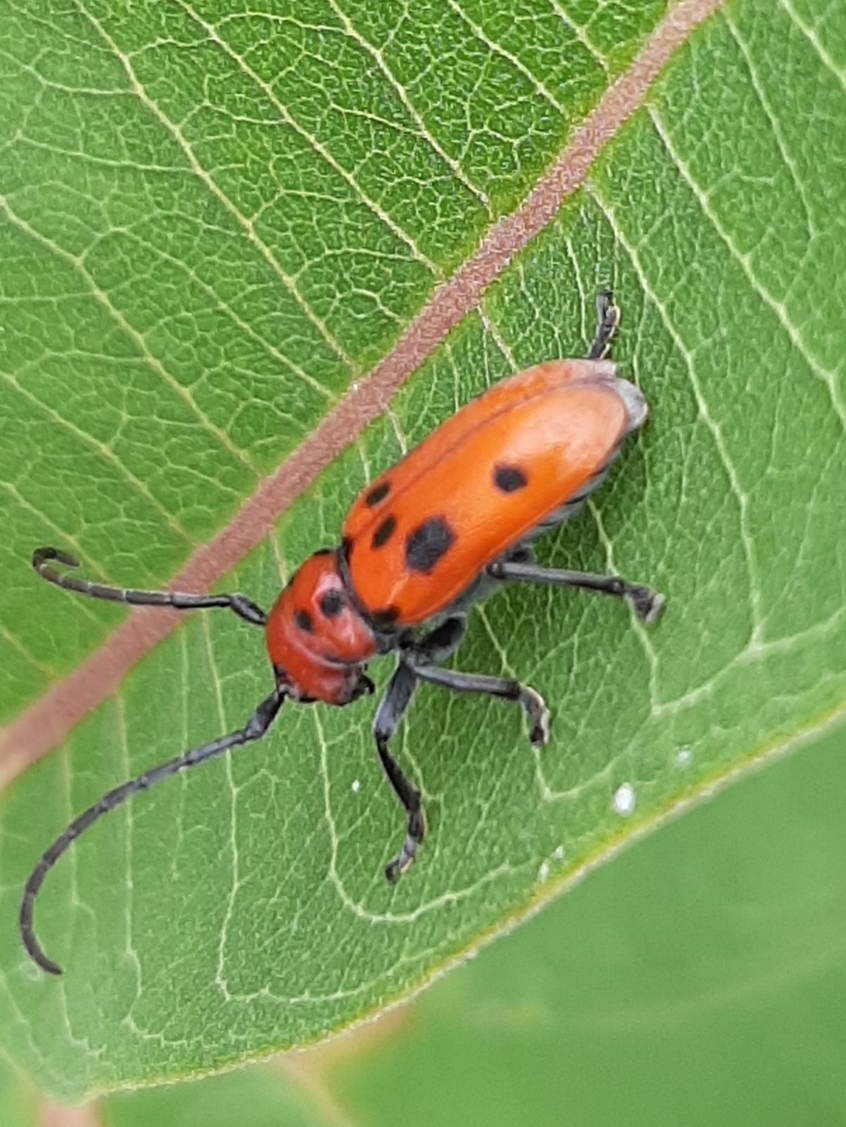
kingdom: Animalia
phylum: Arthropoda
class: Insecta
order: Coleoptera
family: Cerambycidae
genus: Tetraopes
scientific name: Tetraopes tetrophthalmus
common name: Red milkweed beetle
